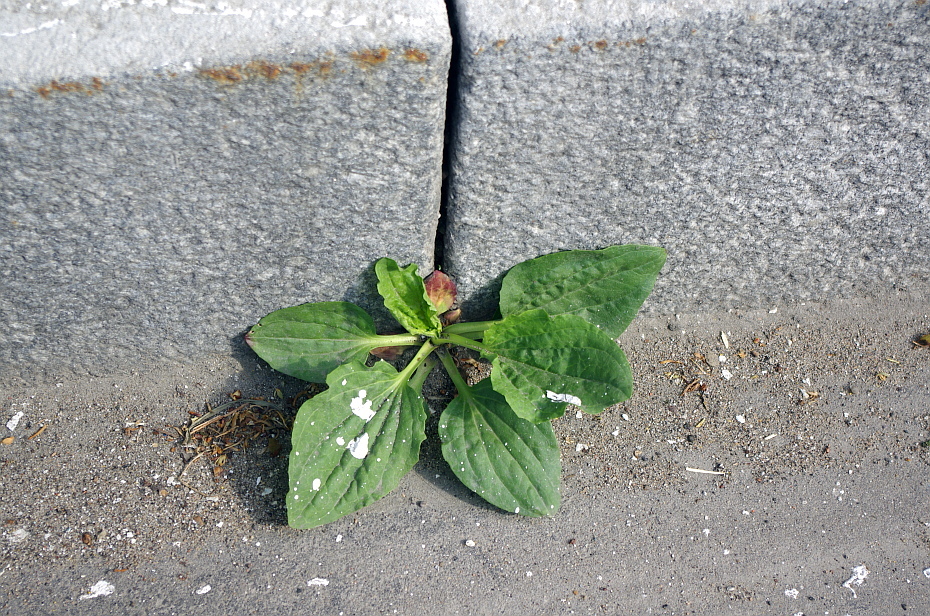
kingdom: Plantae
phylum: Tracheophyta
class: Magnoliopsida
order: Lamiales
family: Plantaginaceae
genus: Plantago
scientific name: Plantago major
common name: Common plantain
